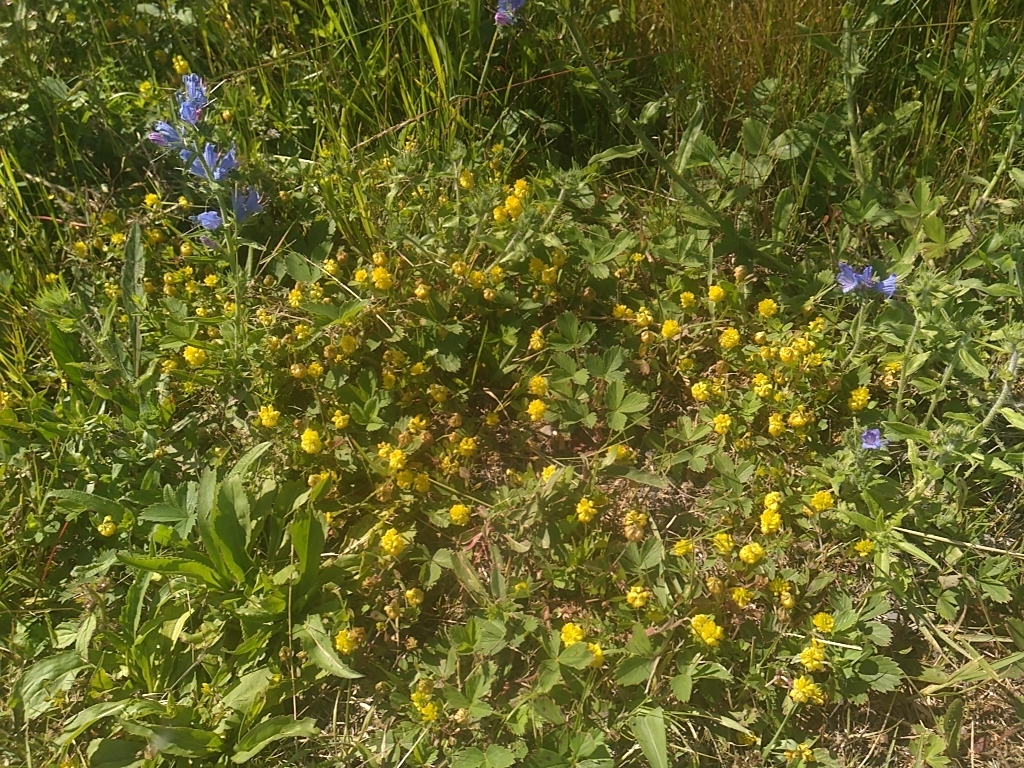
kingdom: Plantae
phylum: Tracheophyta
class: Magnoliopsida
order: Fabales
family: Fabaceae
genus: Trifolium
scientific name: Trifolium campestre
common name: Field clover
